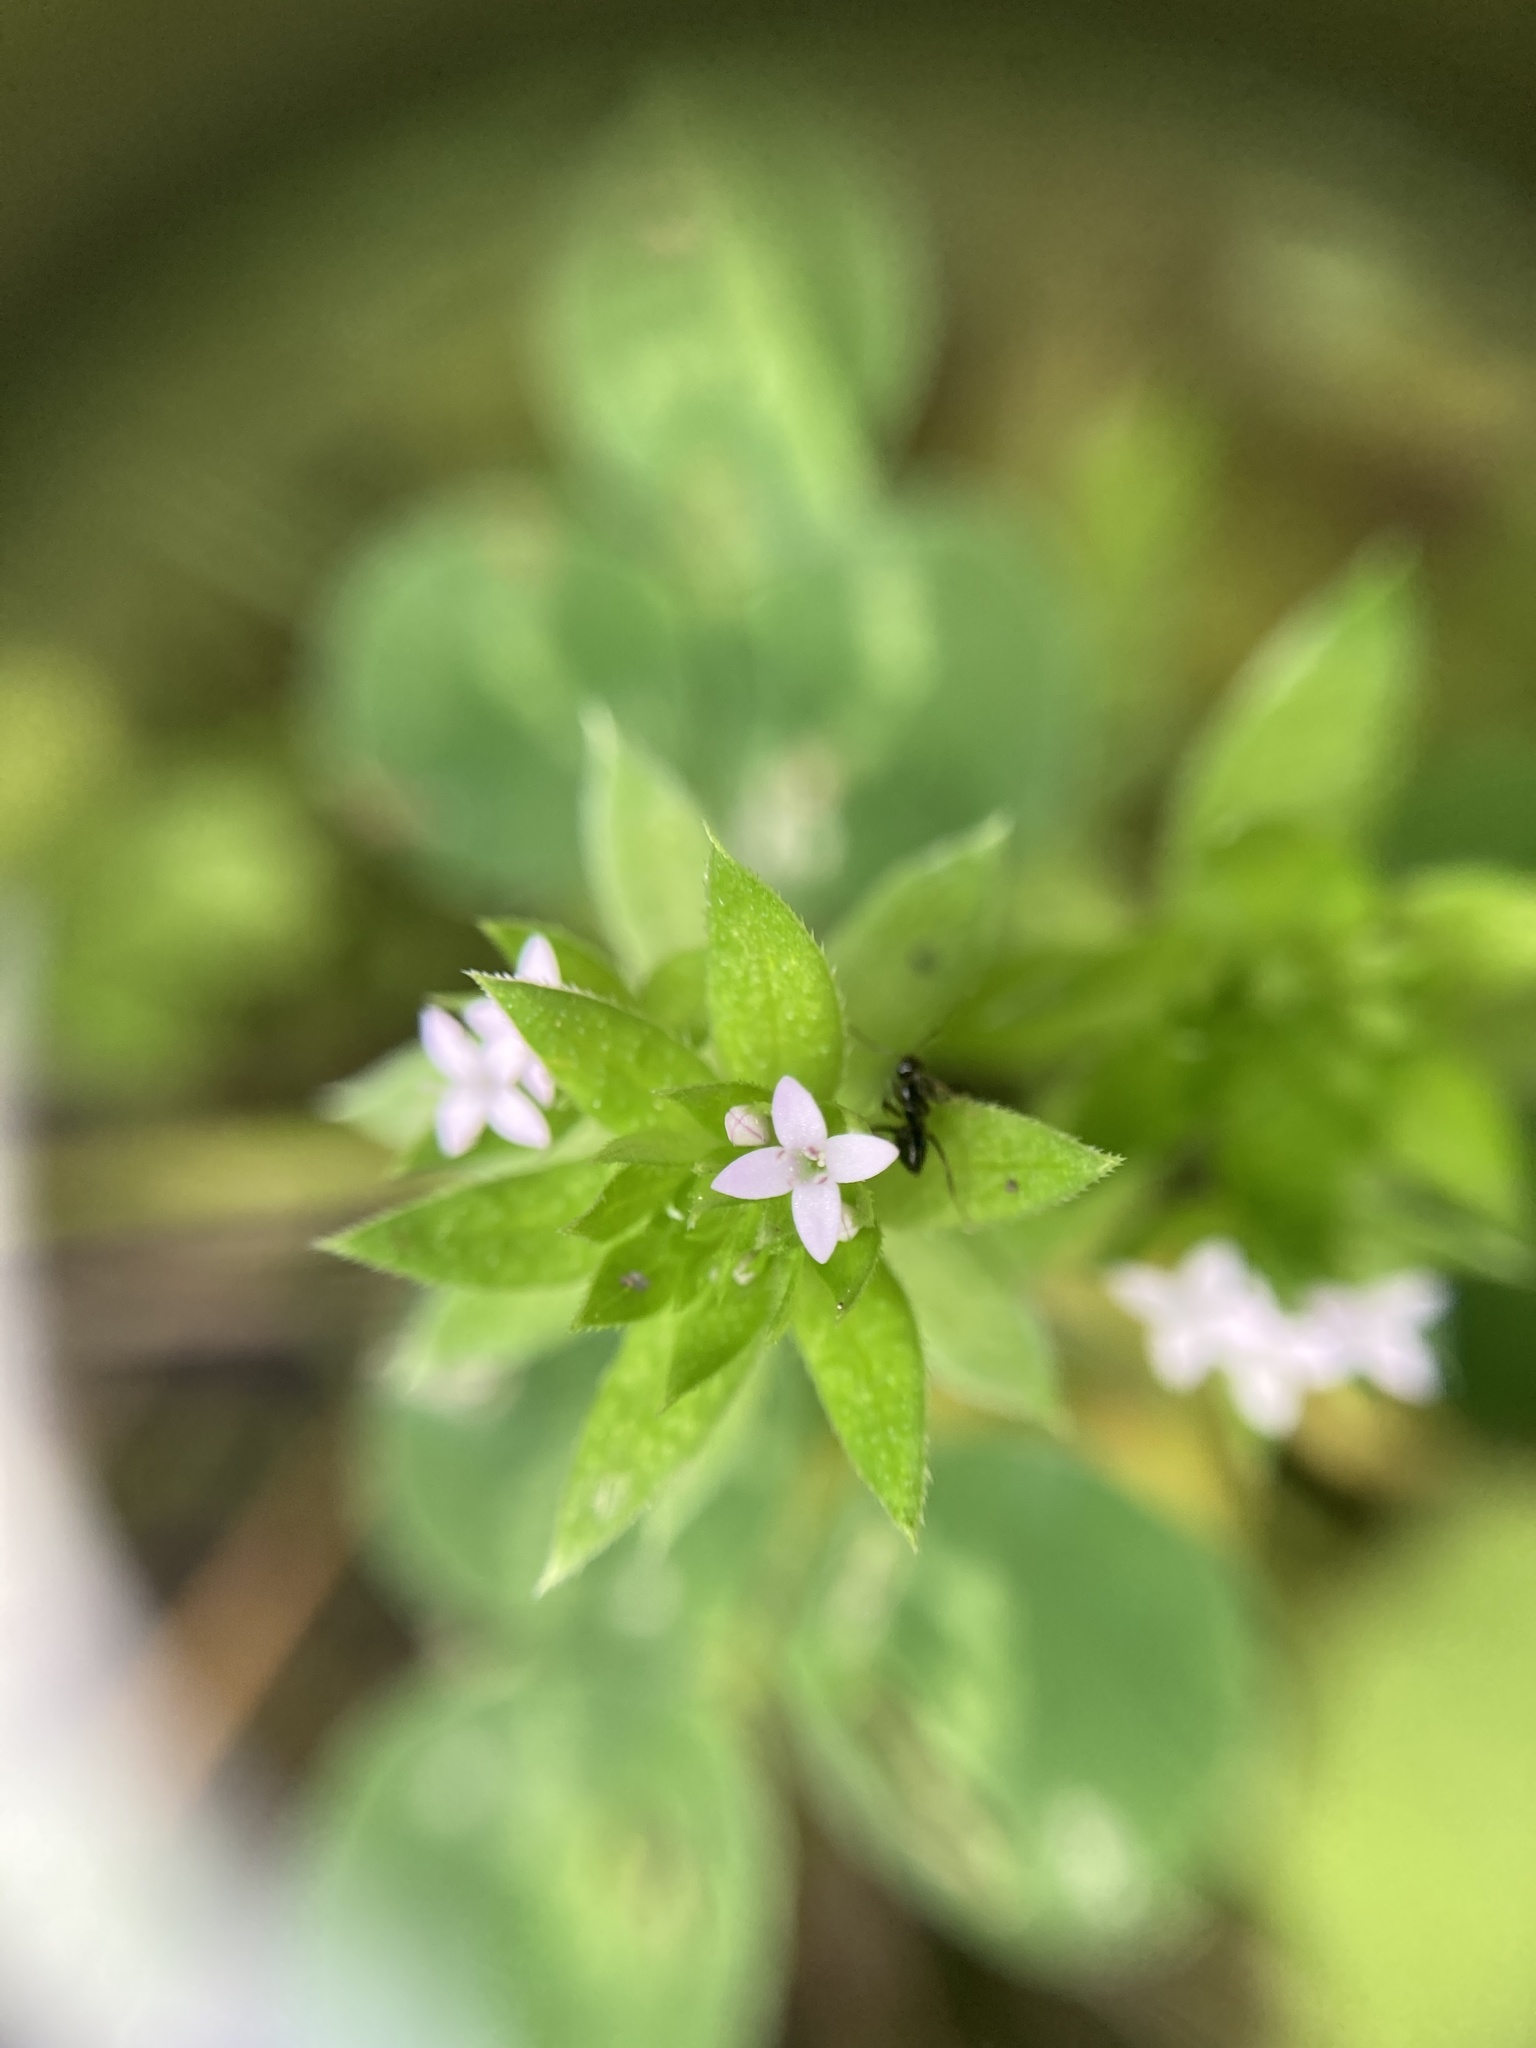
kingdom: Plantae
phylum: Tracheophyta
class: Magnoliopsida
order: Gentianales
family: Rubiaceae
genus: Sherardia
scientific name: Sherardia arvensis
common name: Field madder
